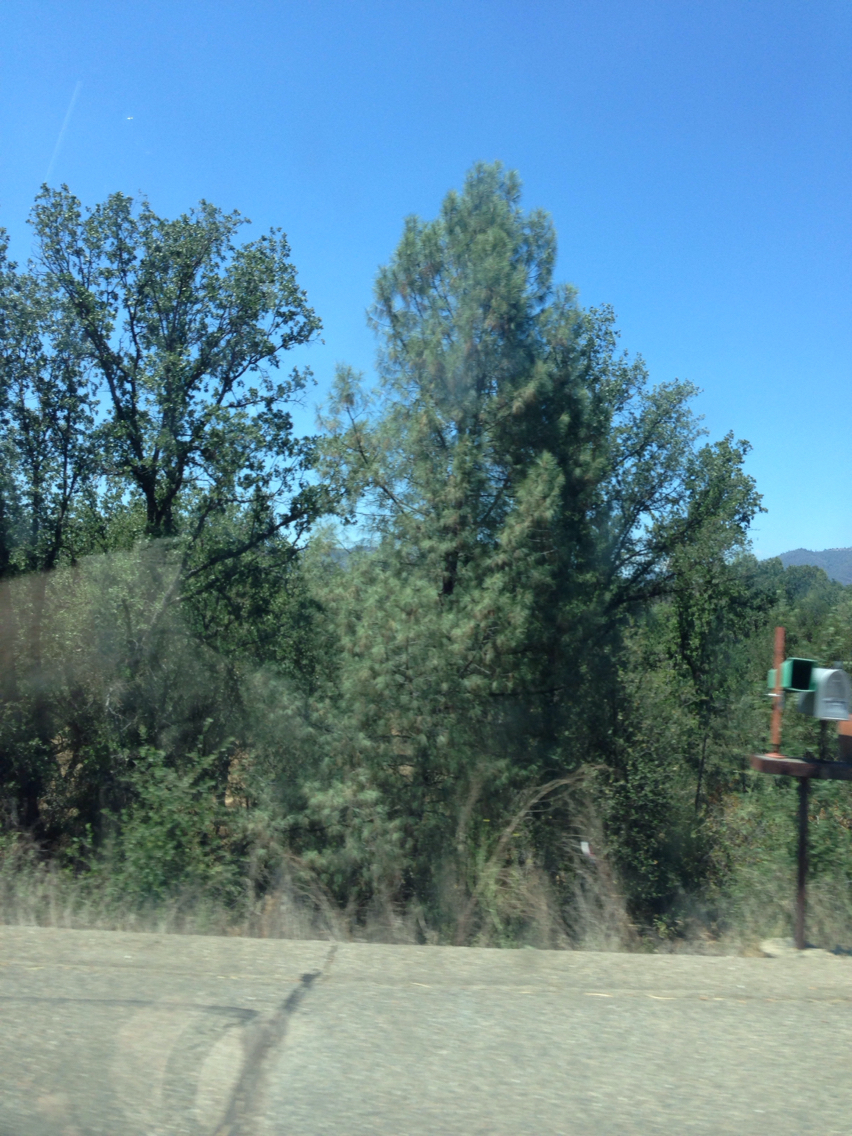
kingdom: Plantae
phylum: Tracheophyta
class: Pinopsida
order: Pinales
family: Pinaceae
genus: Pinus
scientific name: Pinus sabiniana
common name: Bull pine
